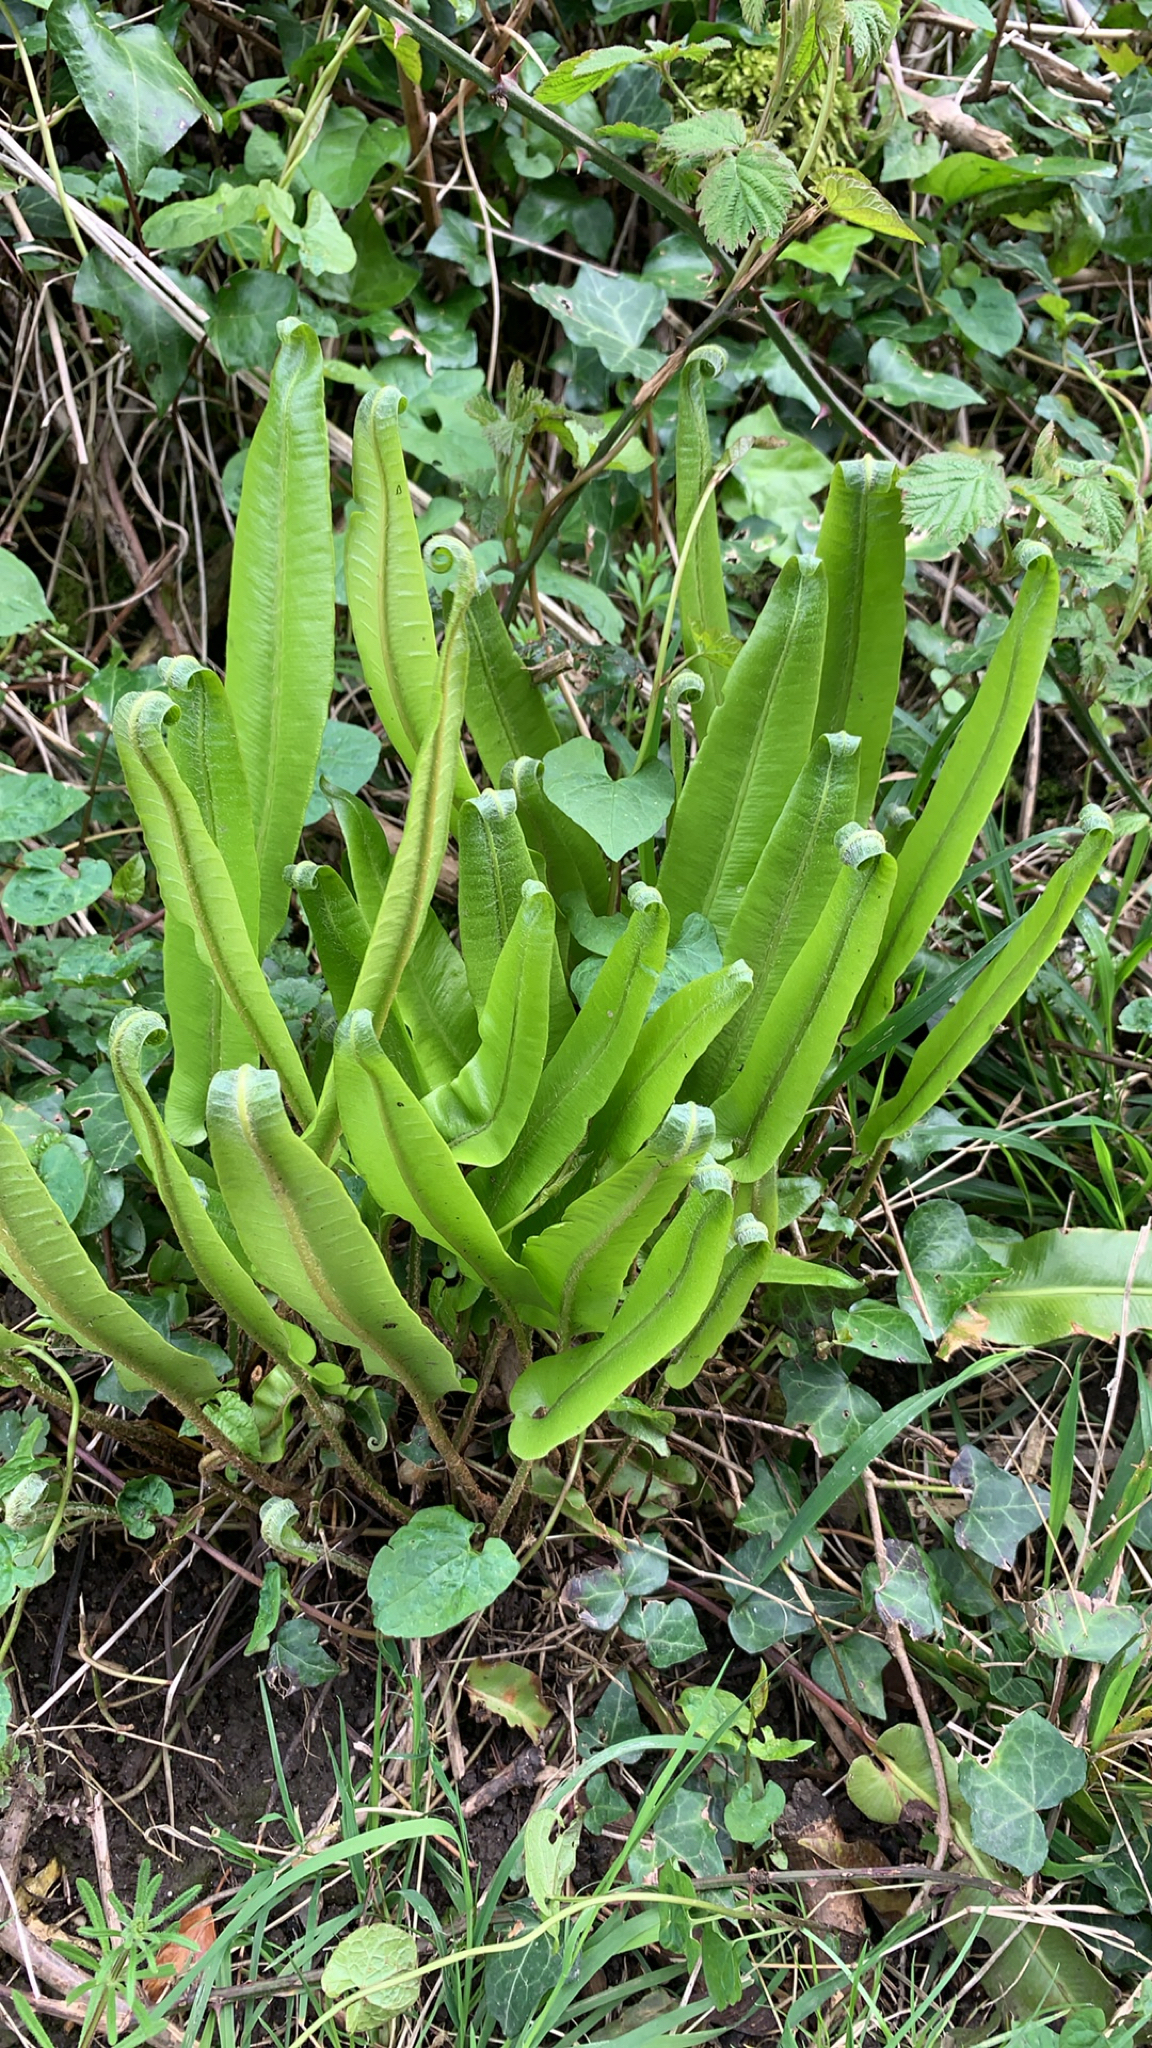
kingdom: Plantae
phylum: Tracheophyta
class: Polypodiopsida
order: Polypodiales
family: Aspleniaceae
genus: Asplenium
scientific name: Asplenium scolopendrium
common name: Hart's-tongue fern
